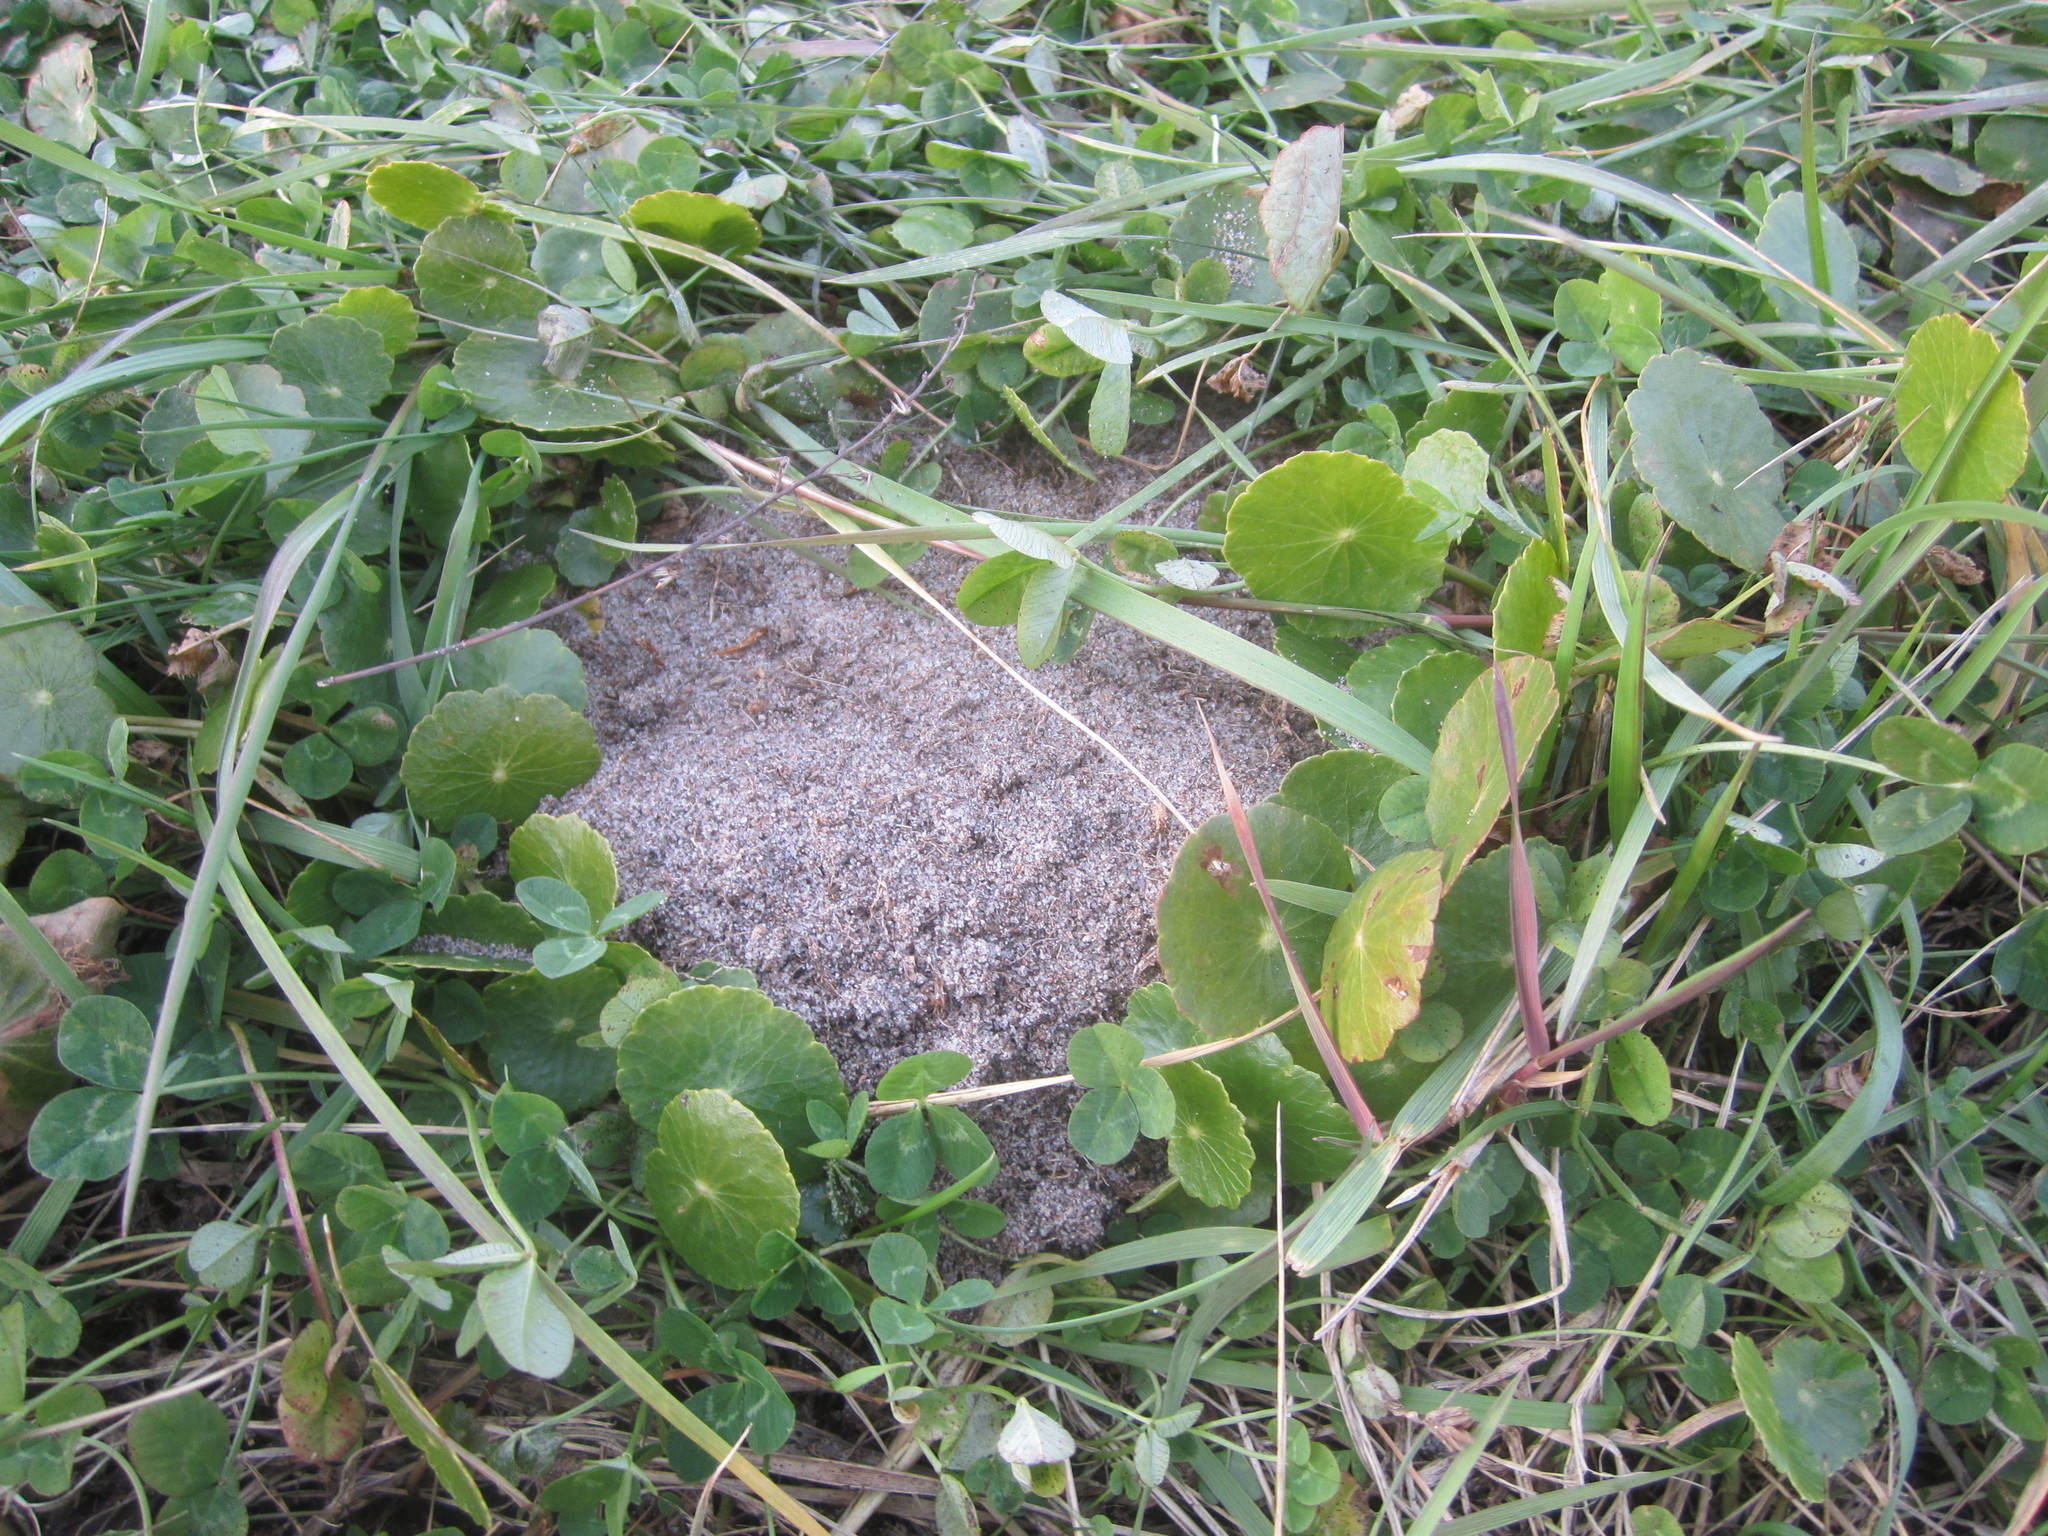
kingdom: Plantae
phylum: Tracheophyta
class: Magnoliopsida
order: Apiales
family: Araliaceae
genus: Hydrocotyle
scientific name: Hydrocotyle bonariensis
